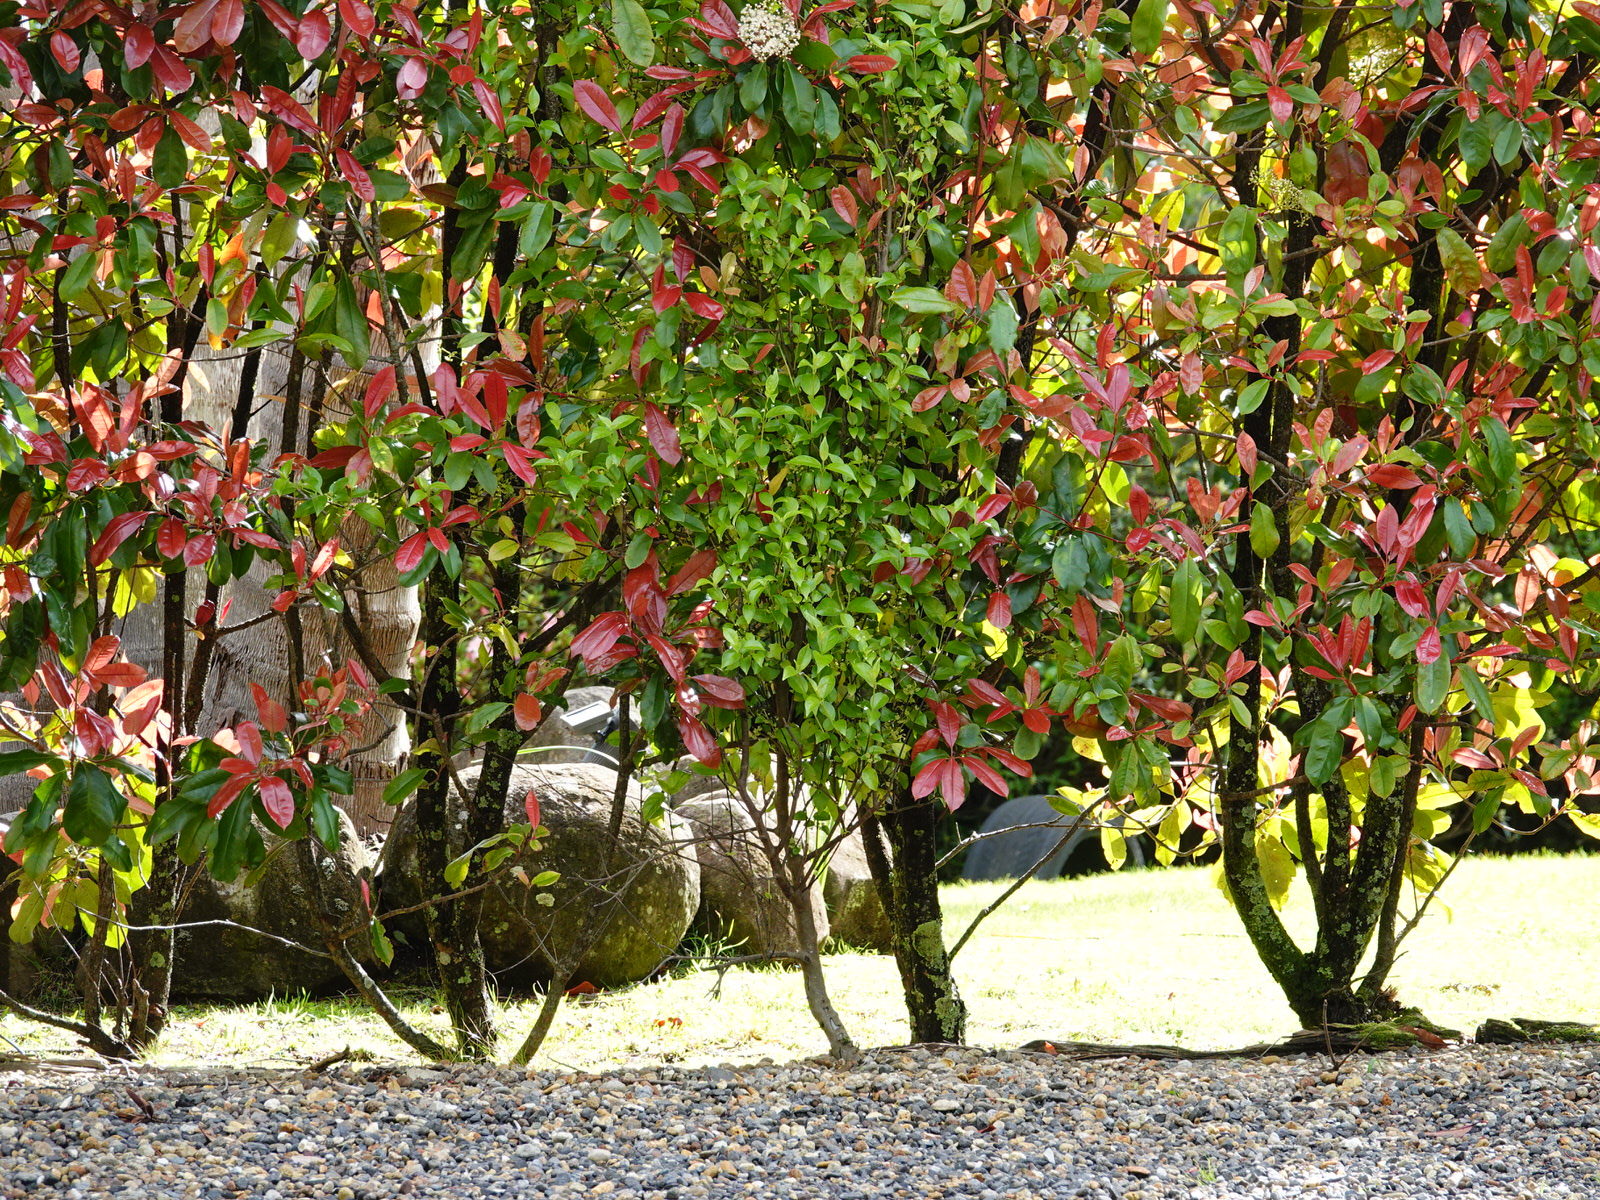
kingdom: Animalia
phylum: Chordata
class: Aves
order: Passeriformes
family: Meliphagidae
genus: Prosthemadera
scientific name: Prosthemadera novaeseelandiae
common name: Tui
